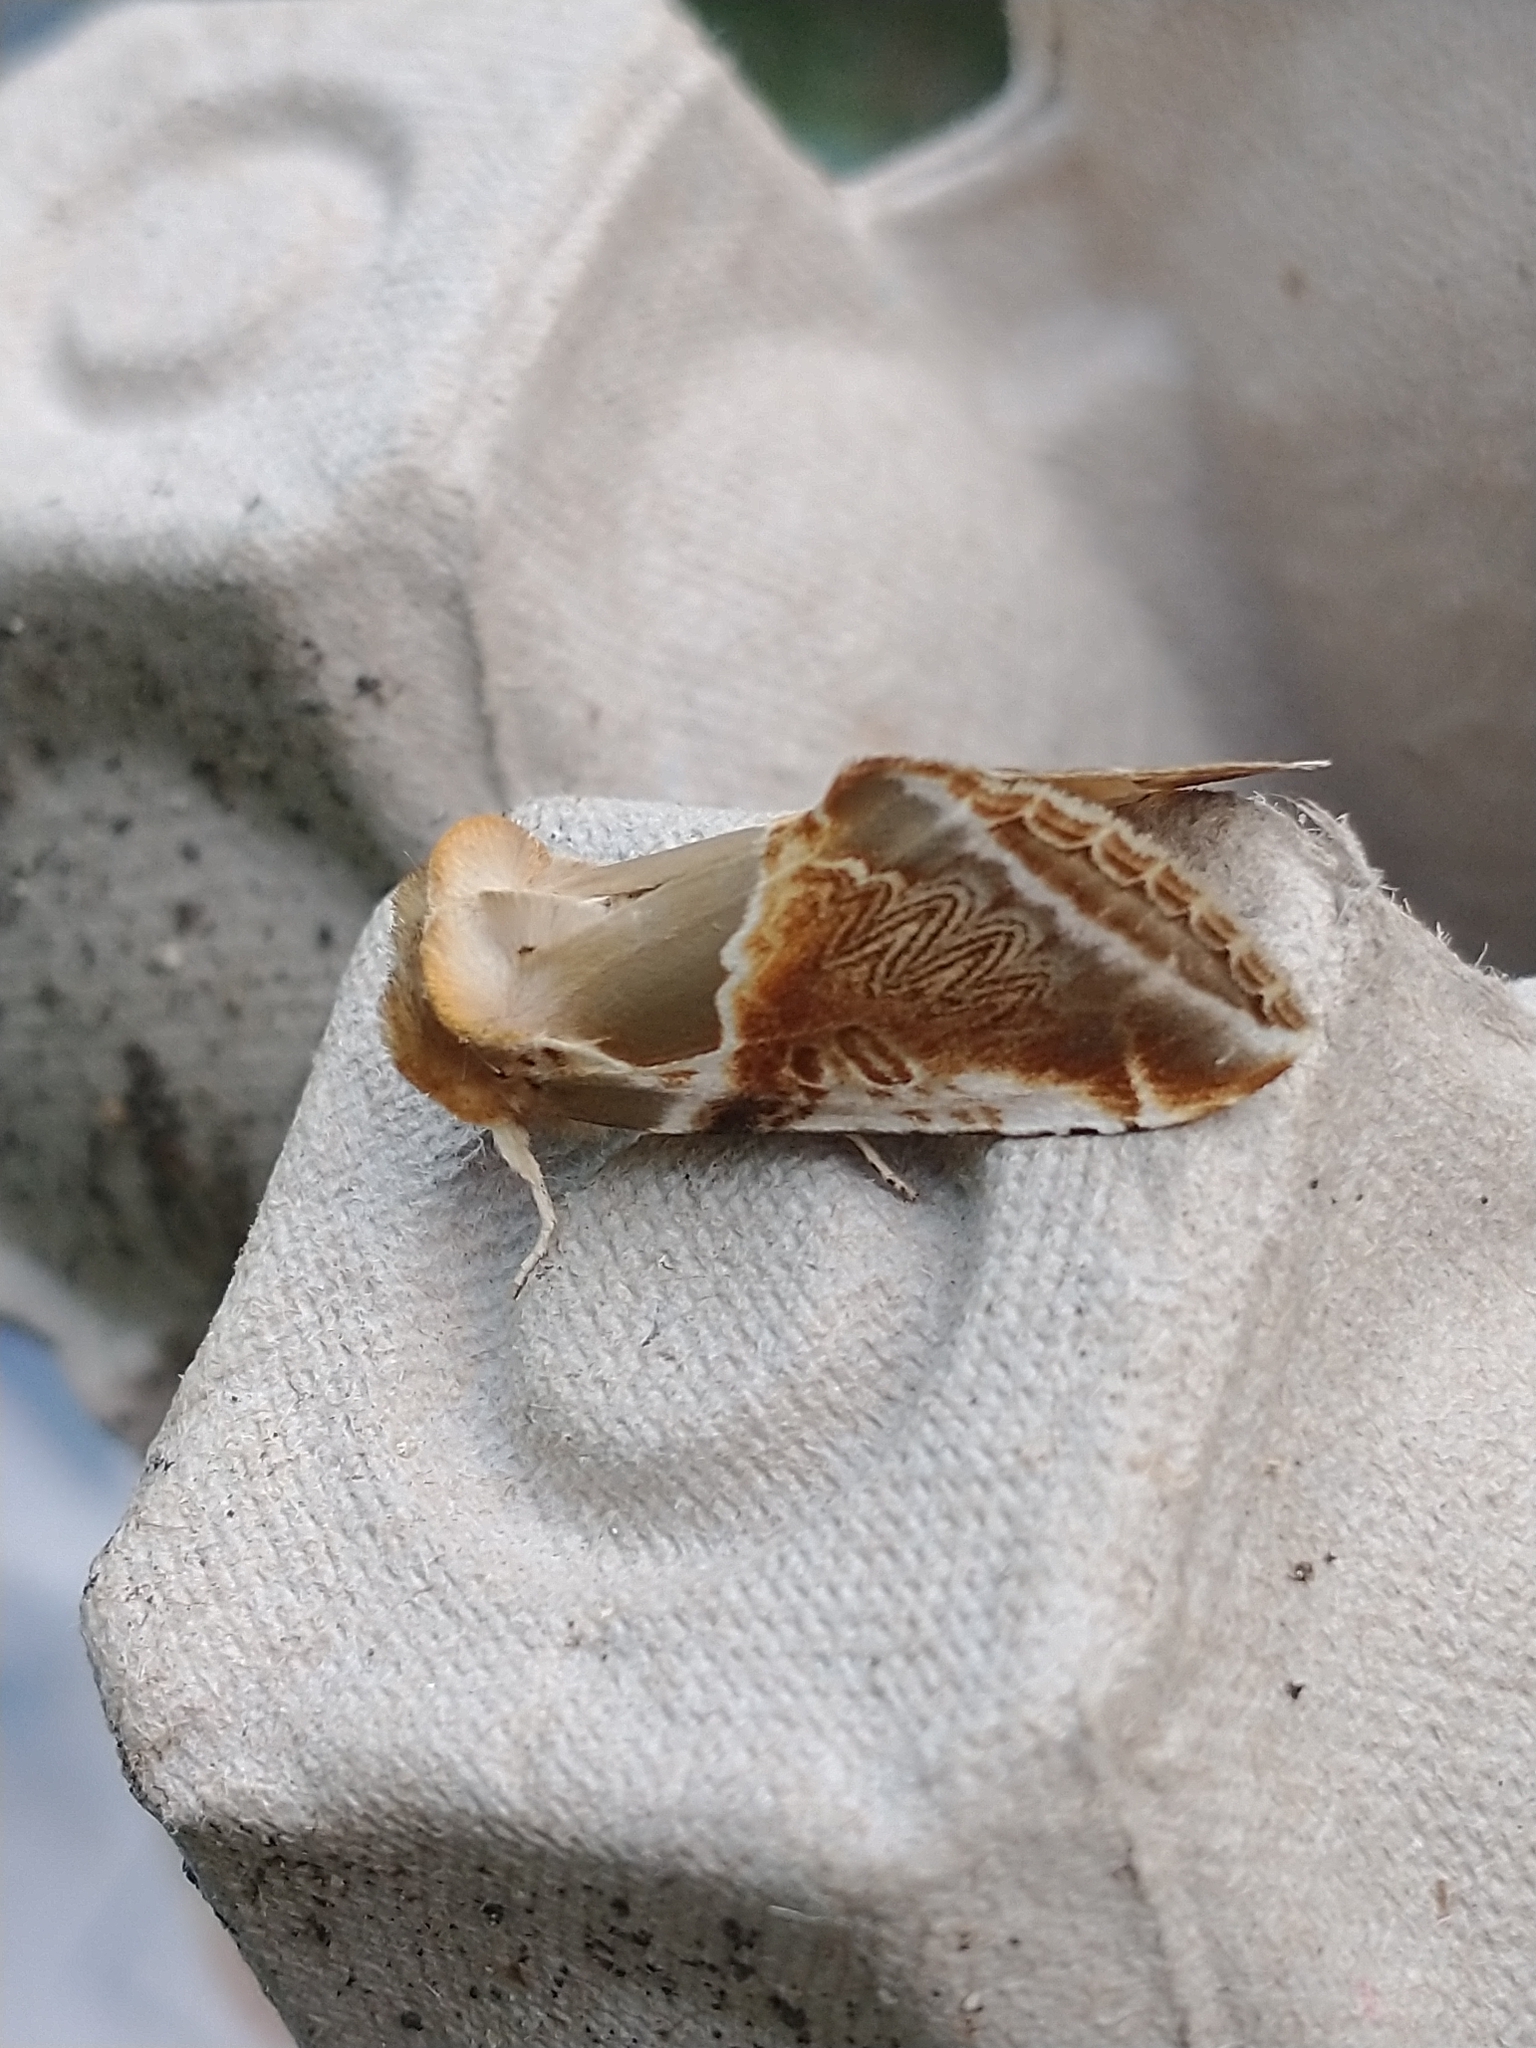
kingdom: Animalia
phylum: Arthropoda
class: Insecta
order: Lepidoptera
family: Drepanidae
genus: Habrosyne
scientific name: Habrosyne pyritoides
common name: Buff arches
